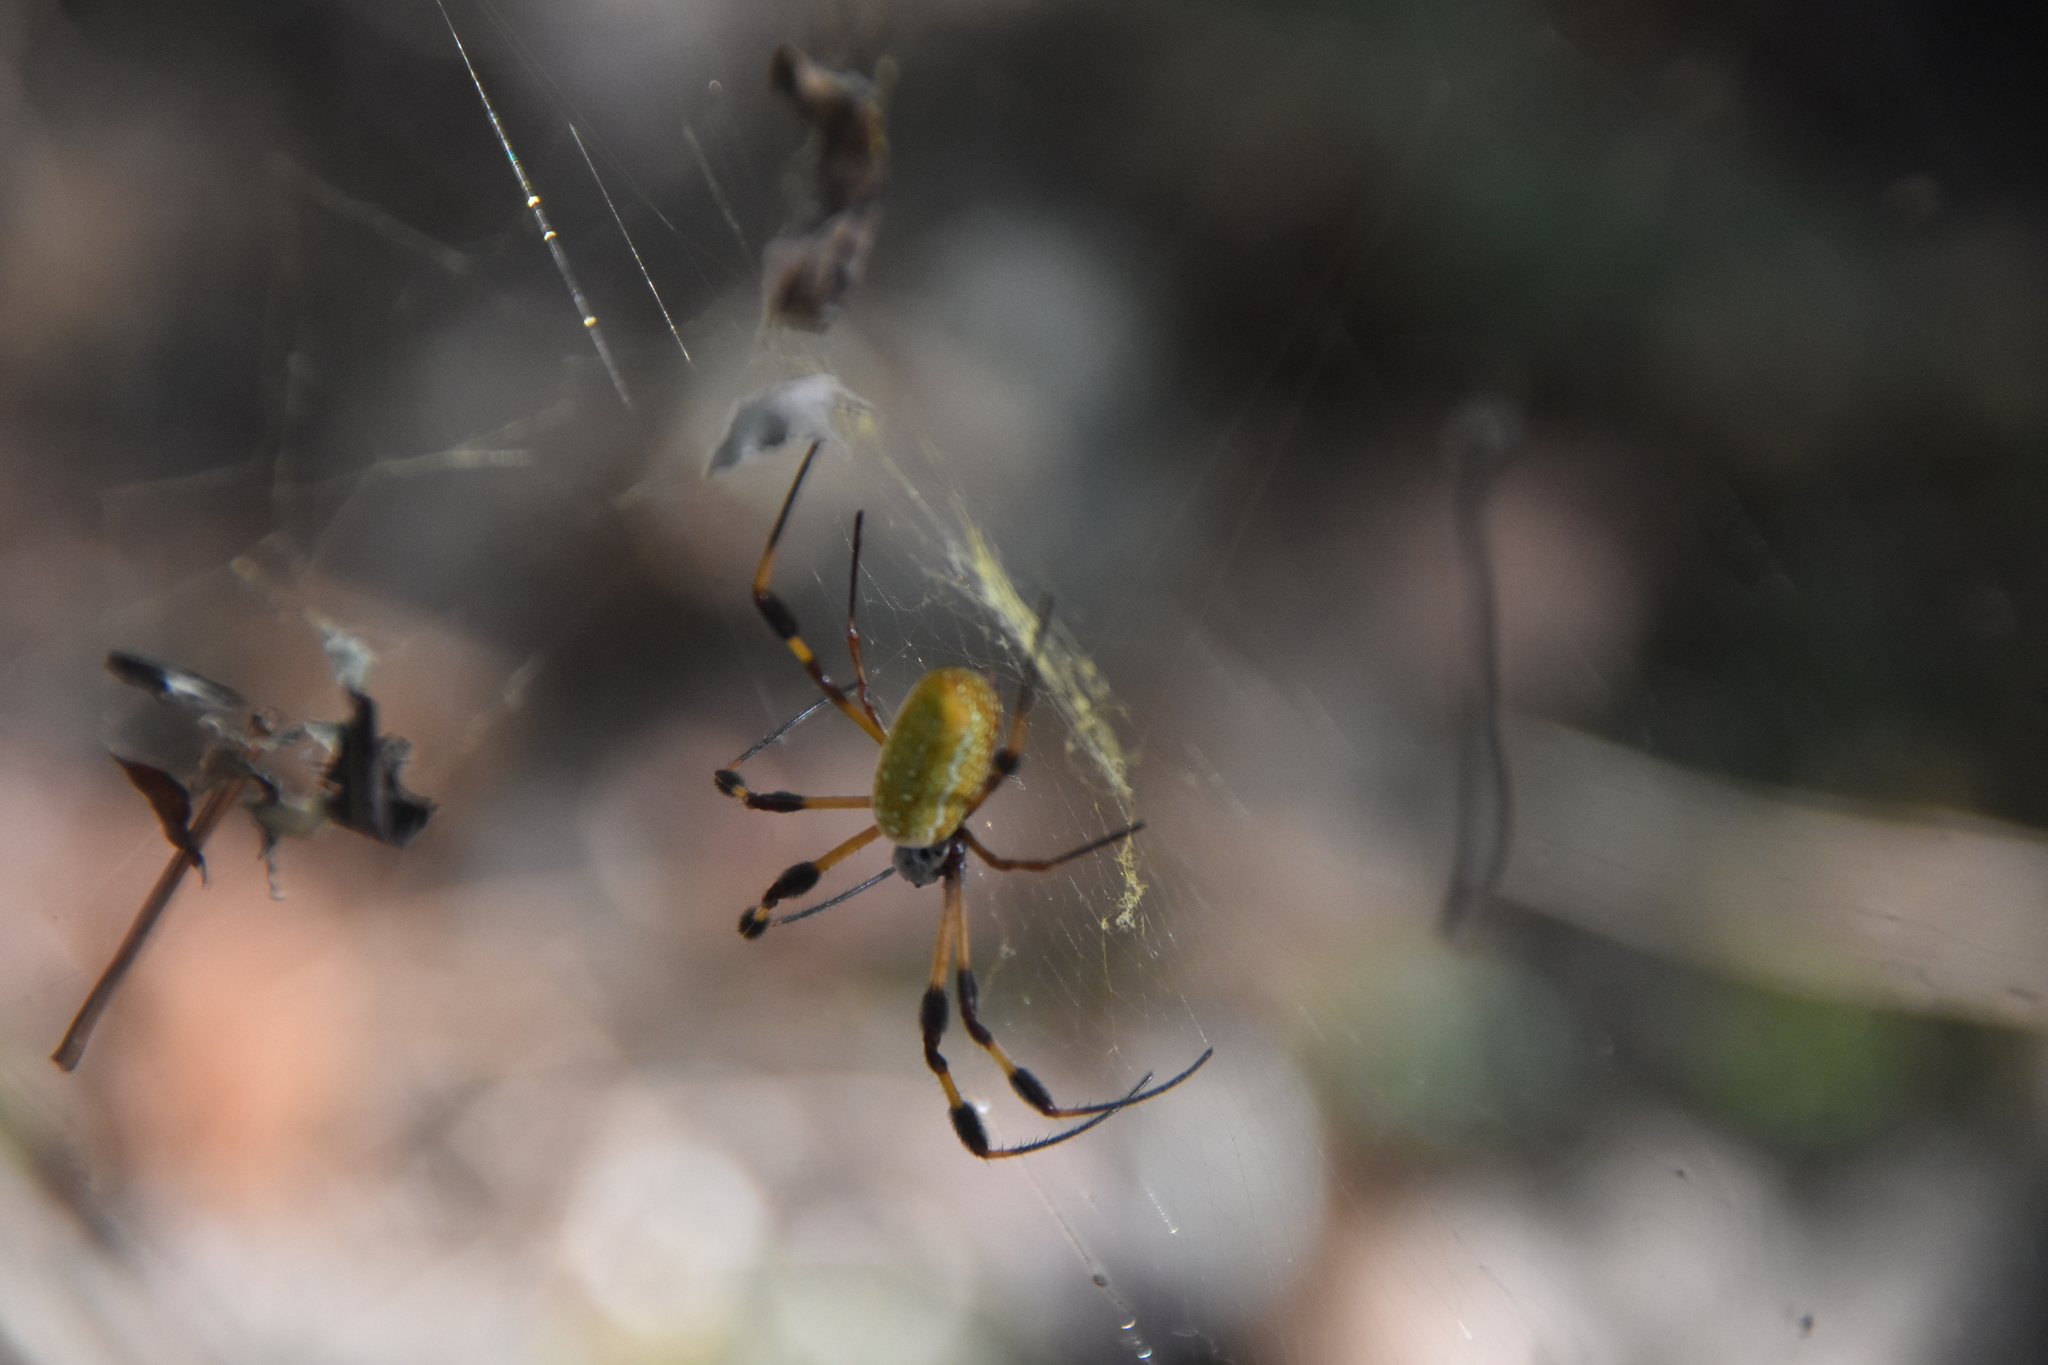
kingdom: Animalia
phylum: Arthropoda
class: Arachnida
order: Araneae
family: Araneidae
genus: Trichonephila
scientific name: Trichonephila clavipes
